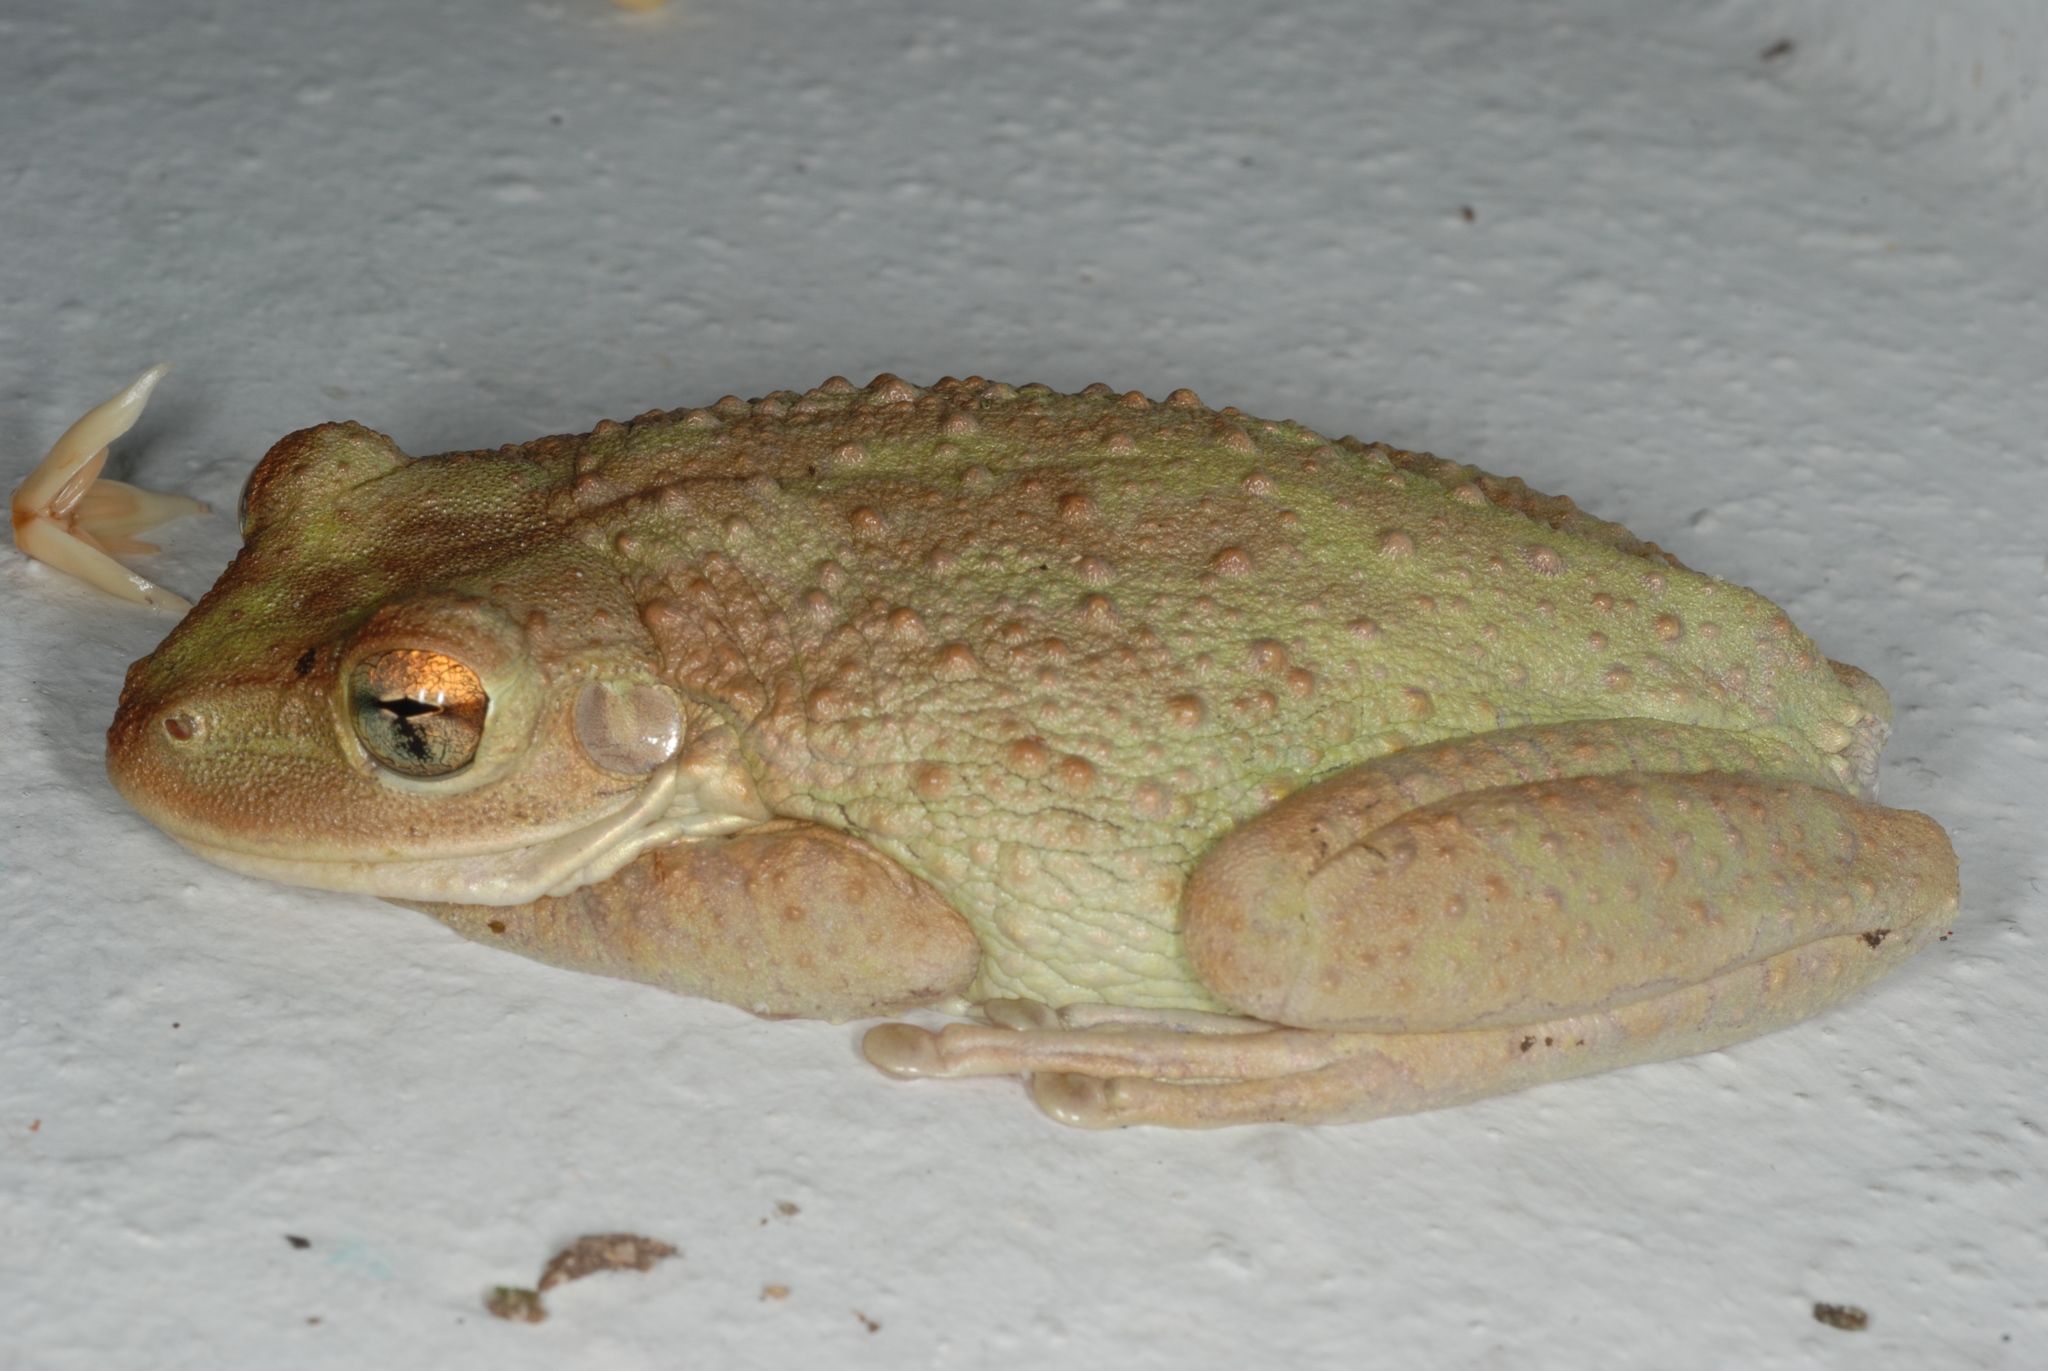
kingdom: Animalia
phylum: Chordata
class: Amphibia
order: Anura
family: Hylidae
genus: Osteopilus
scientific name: Osteopilus septentrionalis
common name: Cuban treefrog
